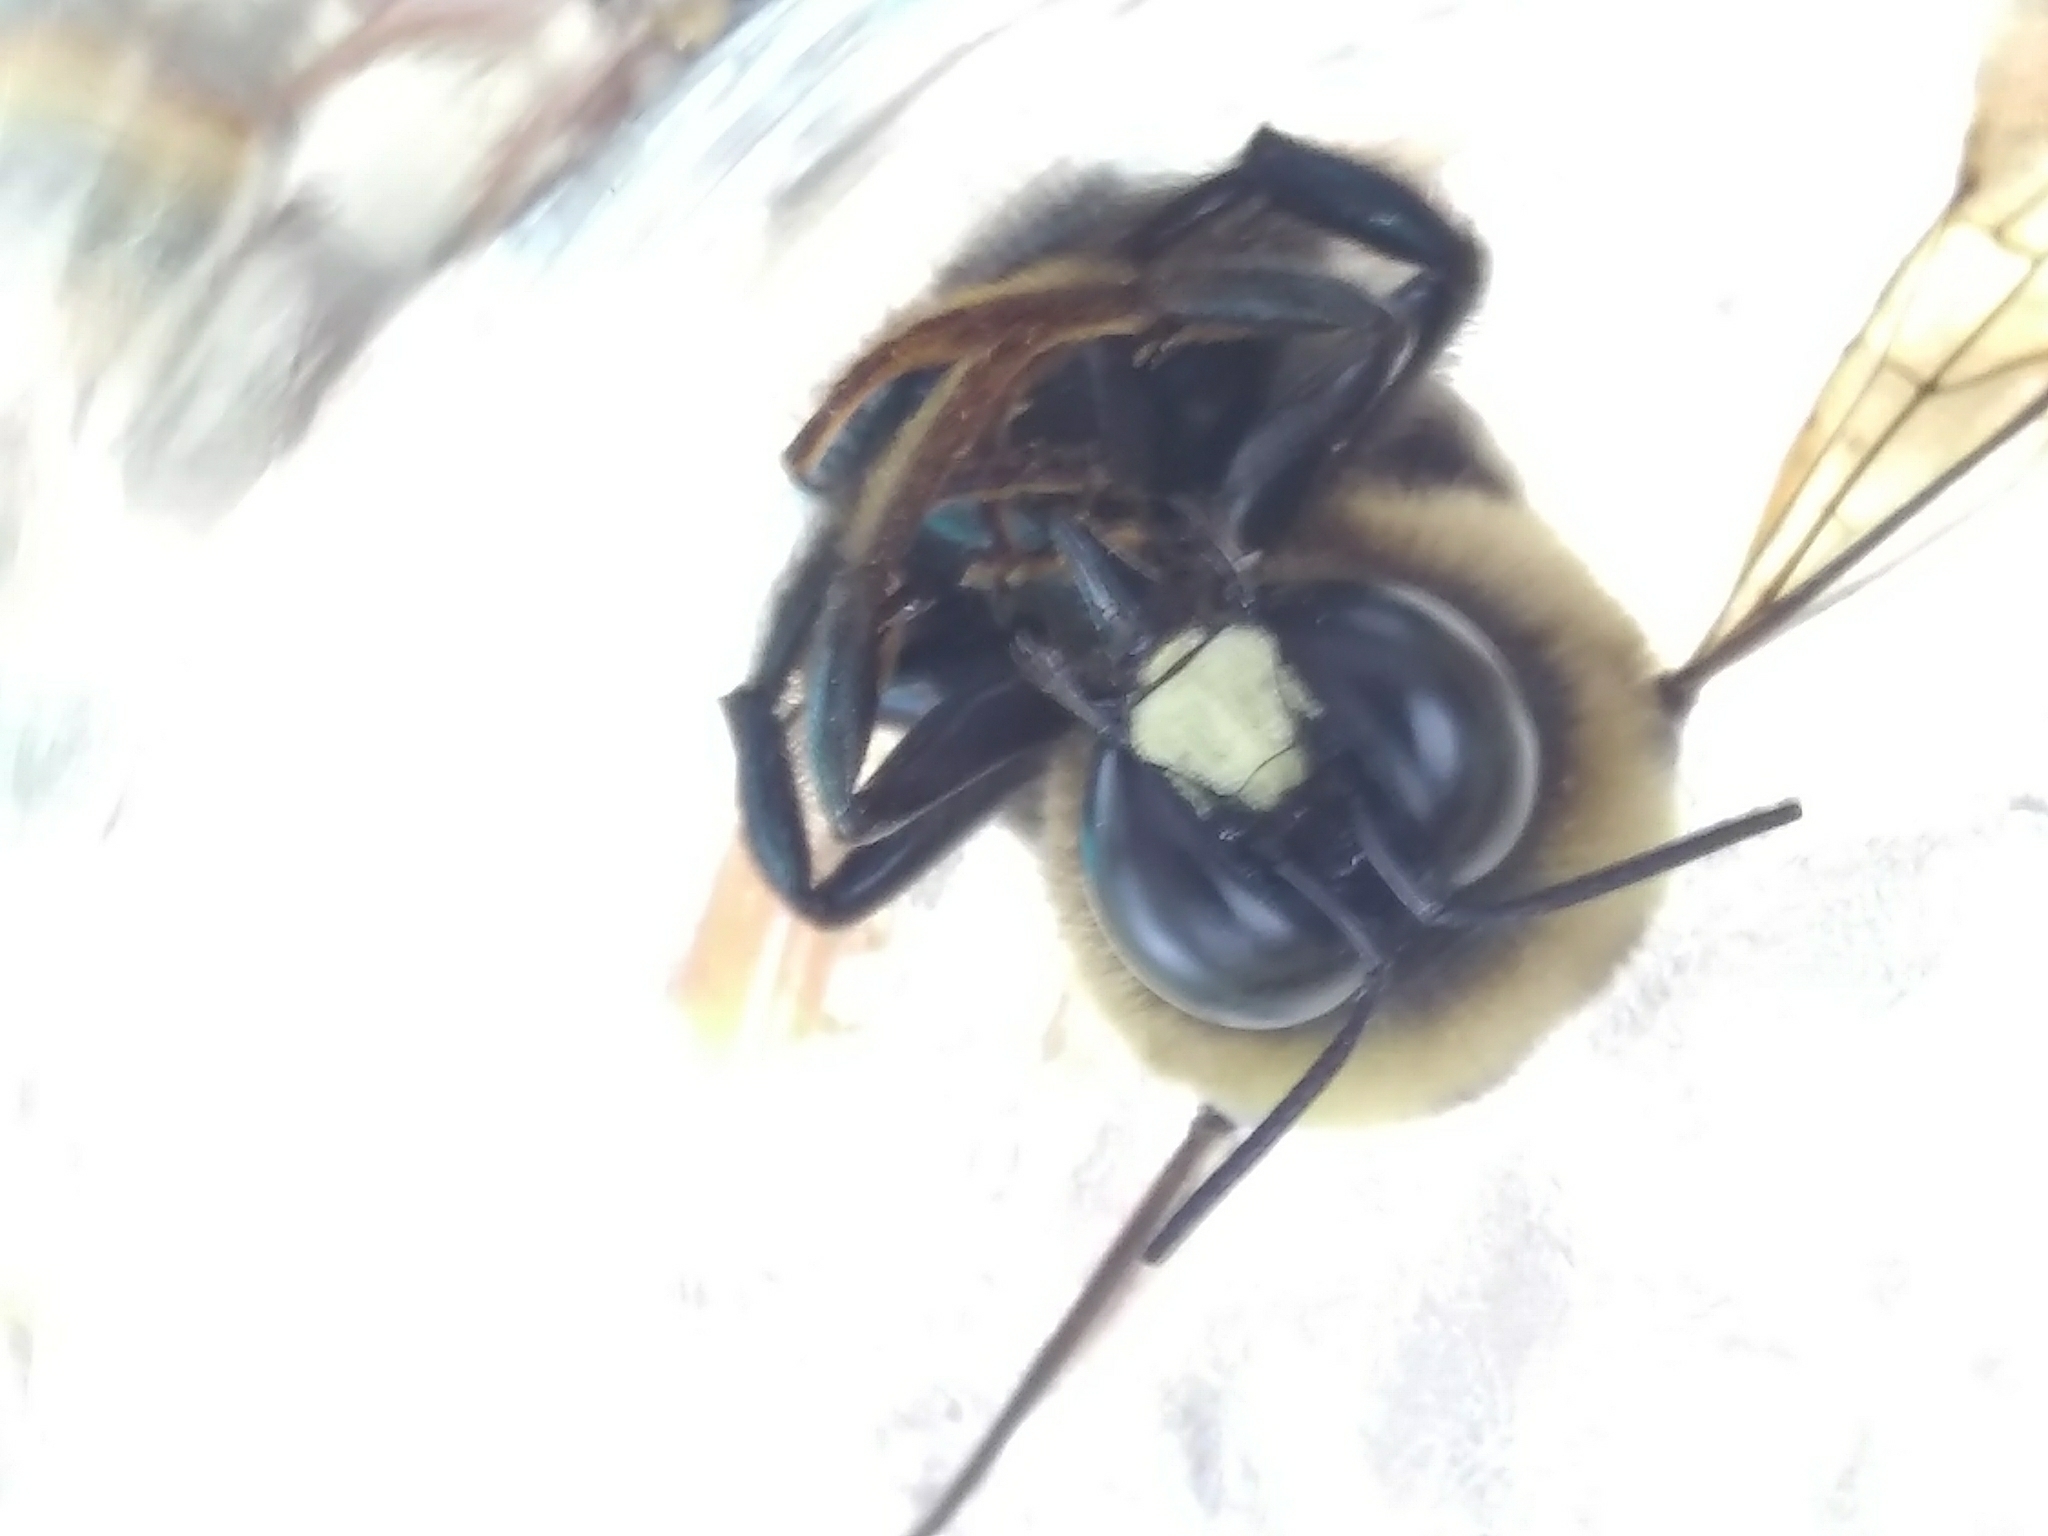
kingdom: Animalia
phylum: Arthropoda
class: Insecta
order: Hymenoptera
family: Apidae
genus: Xylocopa
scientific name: Xylocopa virginica
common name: Carpenter bee
